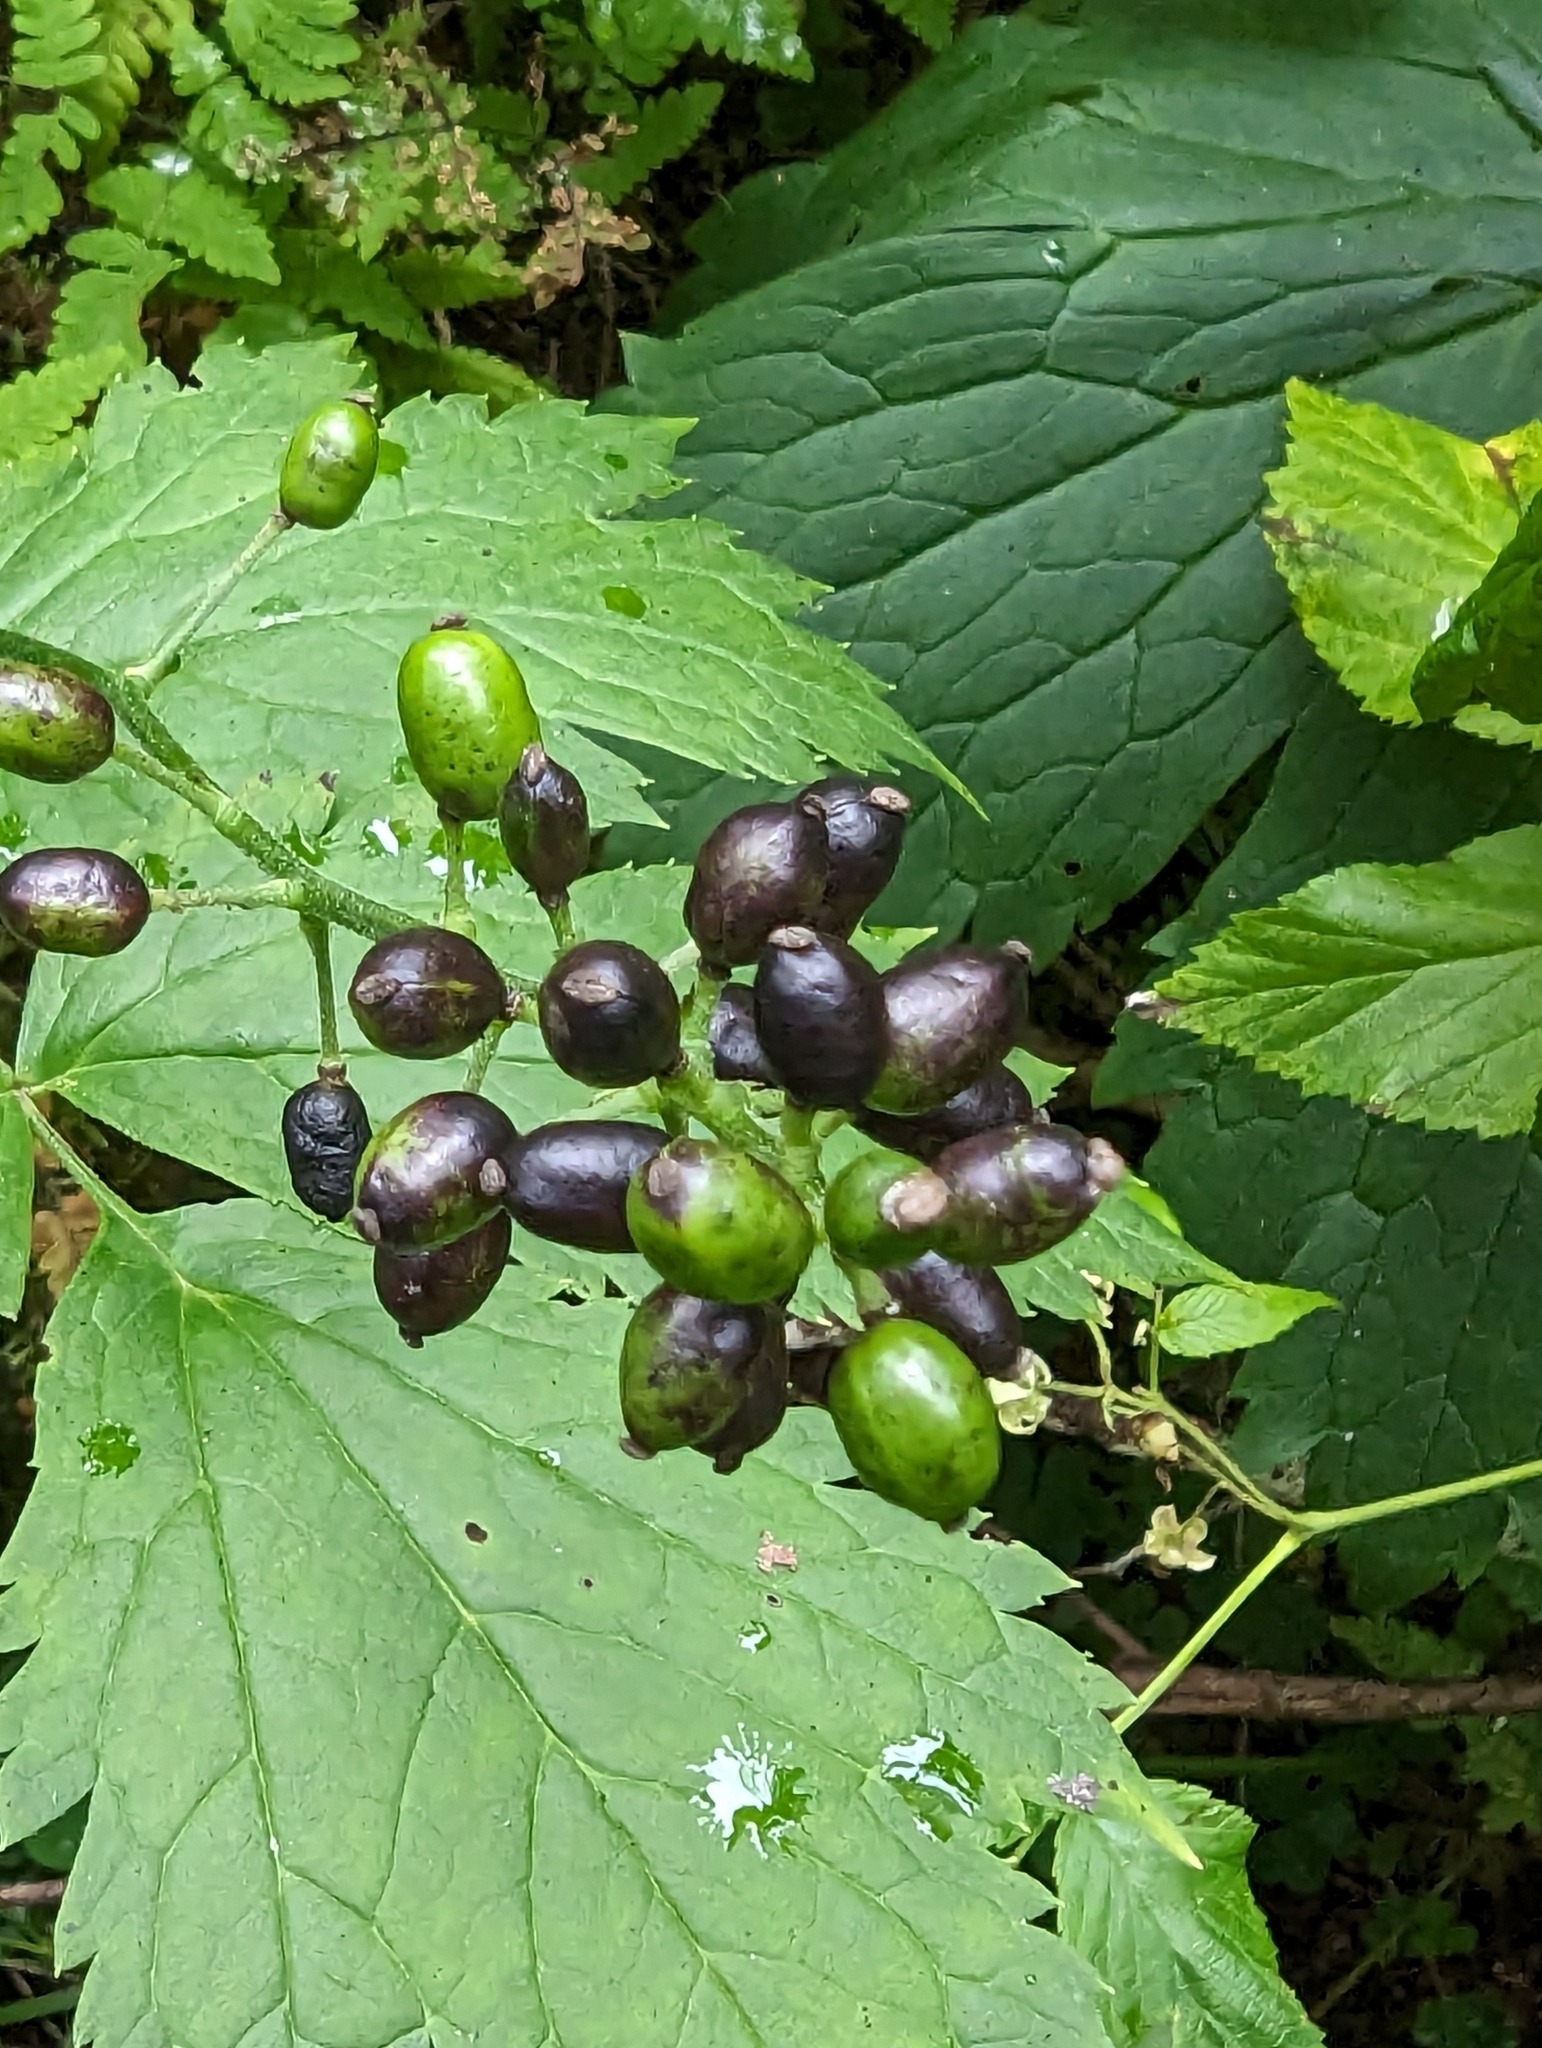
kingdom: Plantae
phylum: Tracheophyta
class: Magnoliopsida
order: Ranunculales
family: Ranunculaceae
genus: Actaea
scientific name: Actaea spicata
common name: Baneberry
